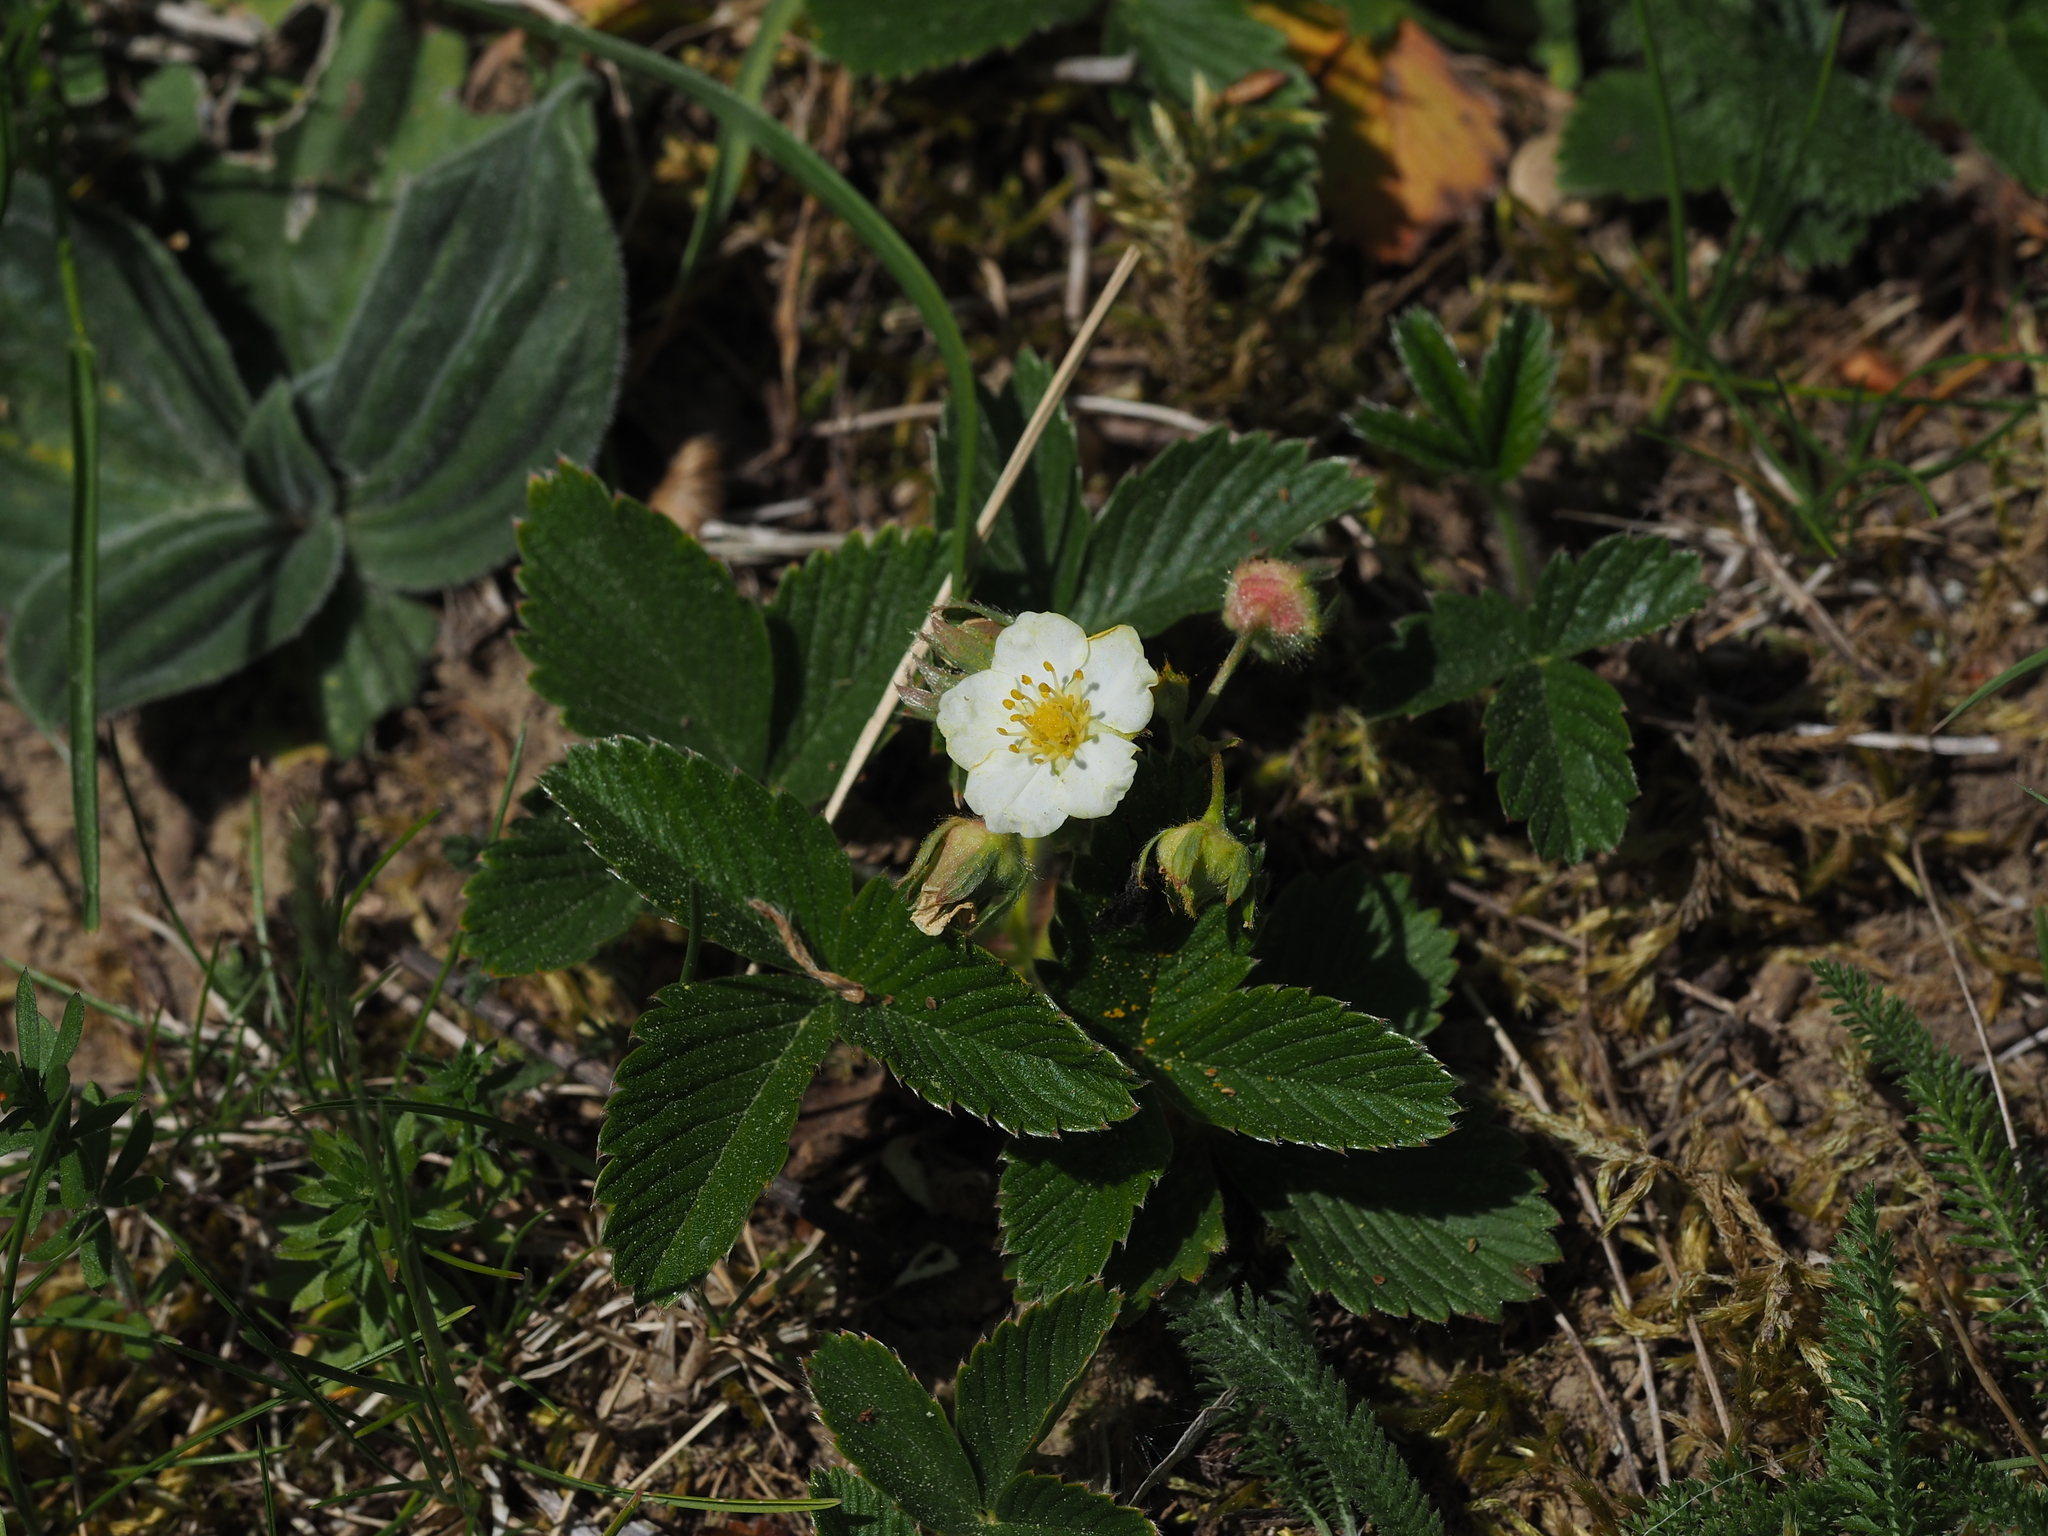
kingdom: Plantae
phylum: Tracheophyta
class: Magnoliopsida
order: Rosales
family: Rosaceae
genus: Fragaria
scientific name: Fragaria viridis
